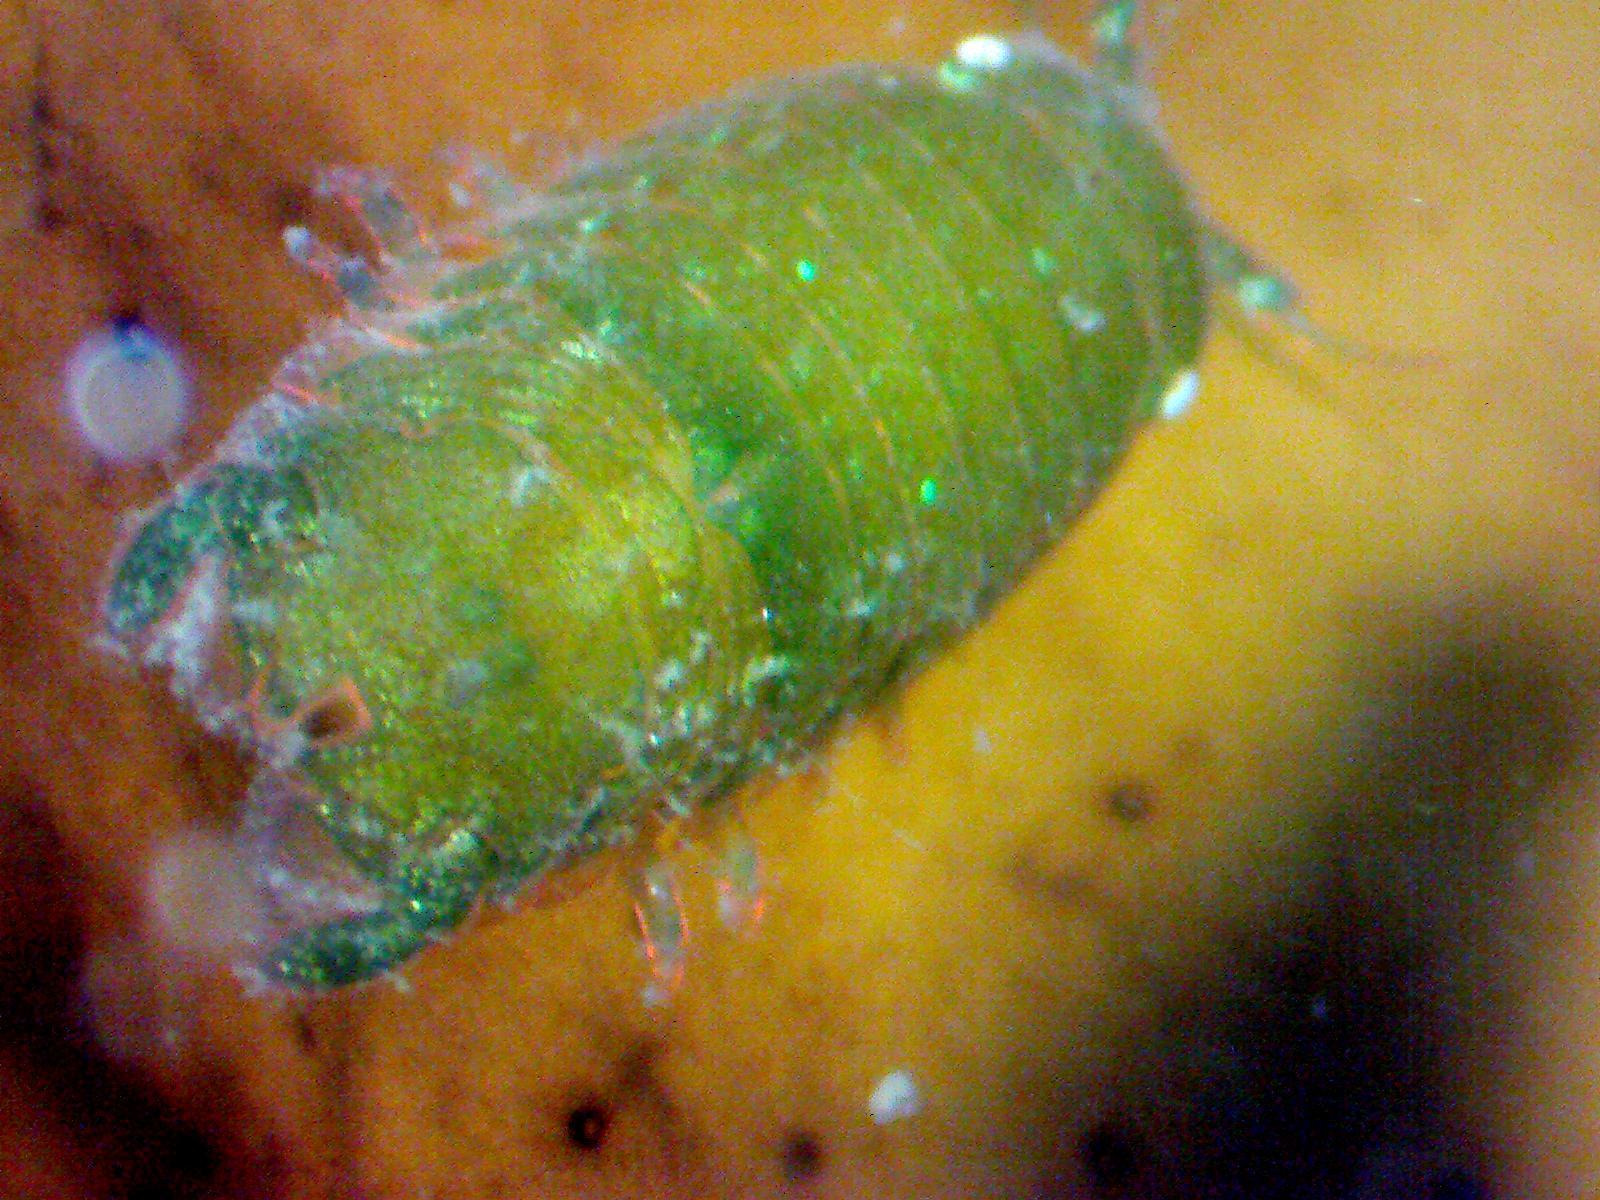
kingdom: Animalia
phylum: Arthropoda
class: Malacostraca
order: Isopoda
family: Sphaeromatidae
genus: Dynamene
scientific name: Dynamene bidentata
